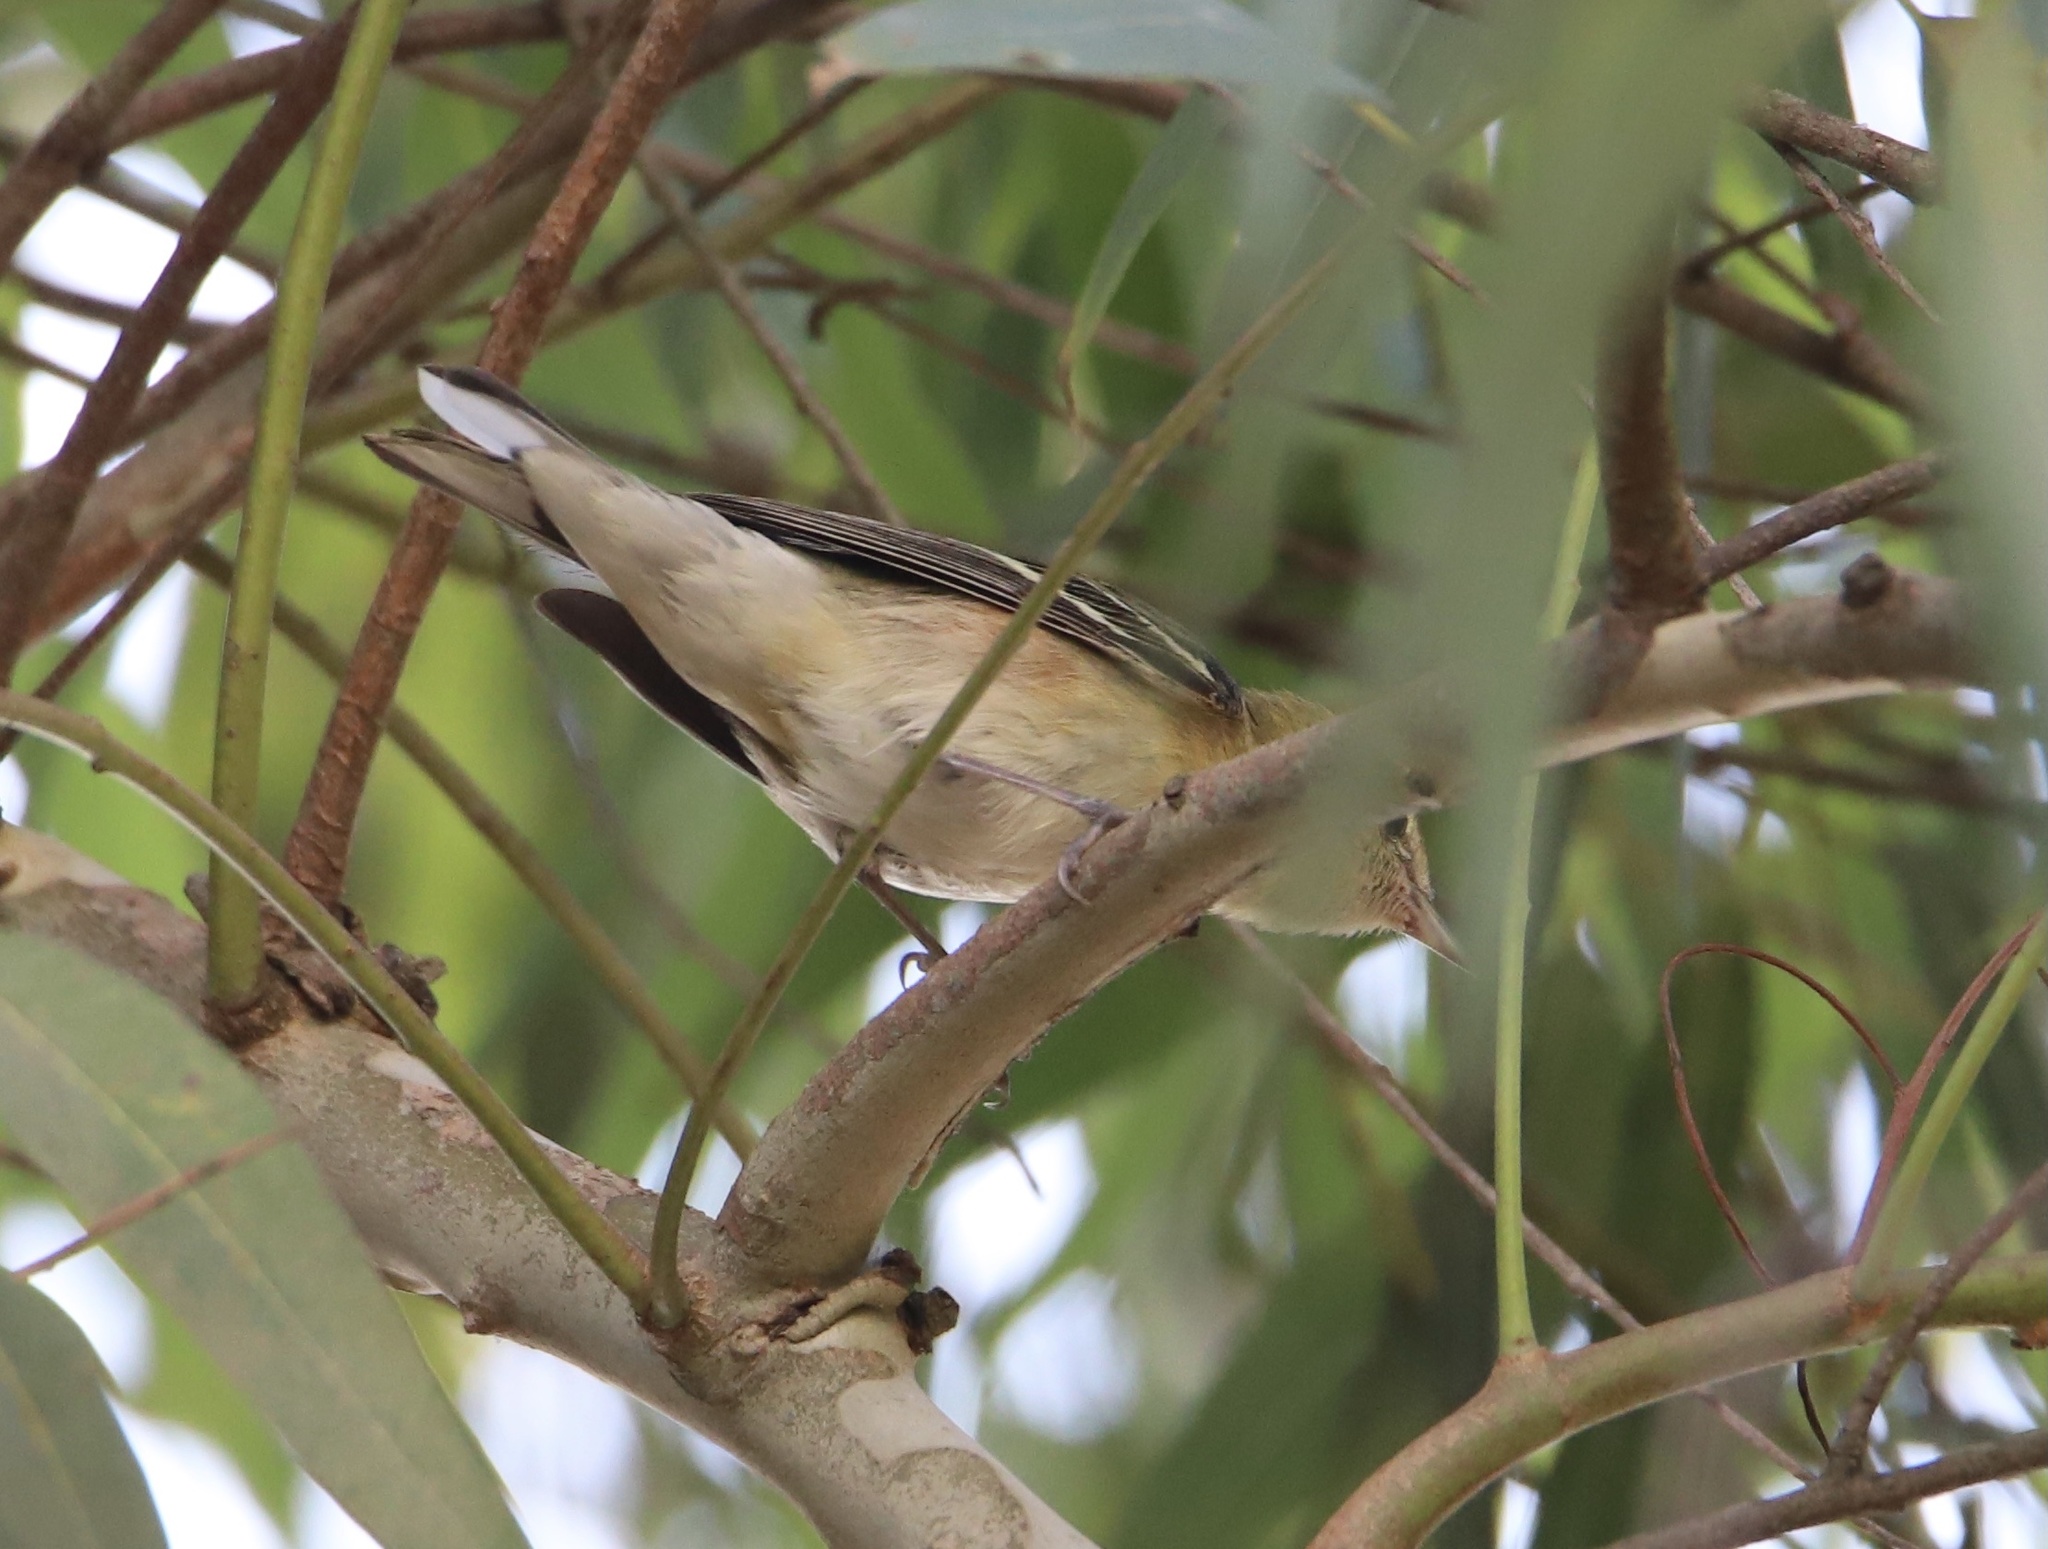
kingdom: Animalia
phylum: Chordata
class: Aves
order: Passeriformes
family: Parulidae
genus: Setophaga
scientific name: Setophaga castanea
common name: Bay-breasted warbler
